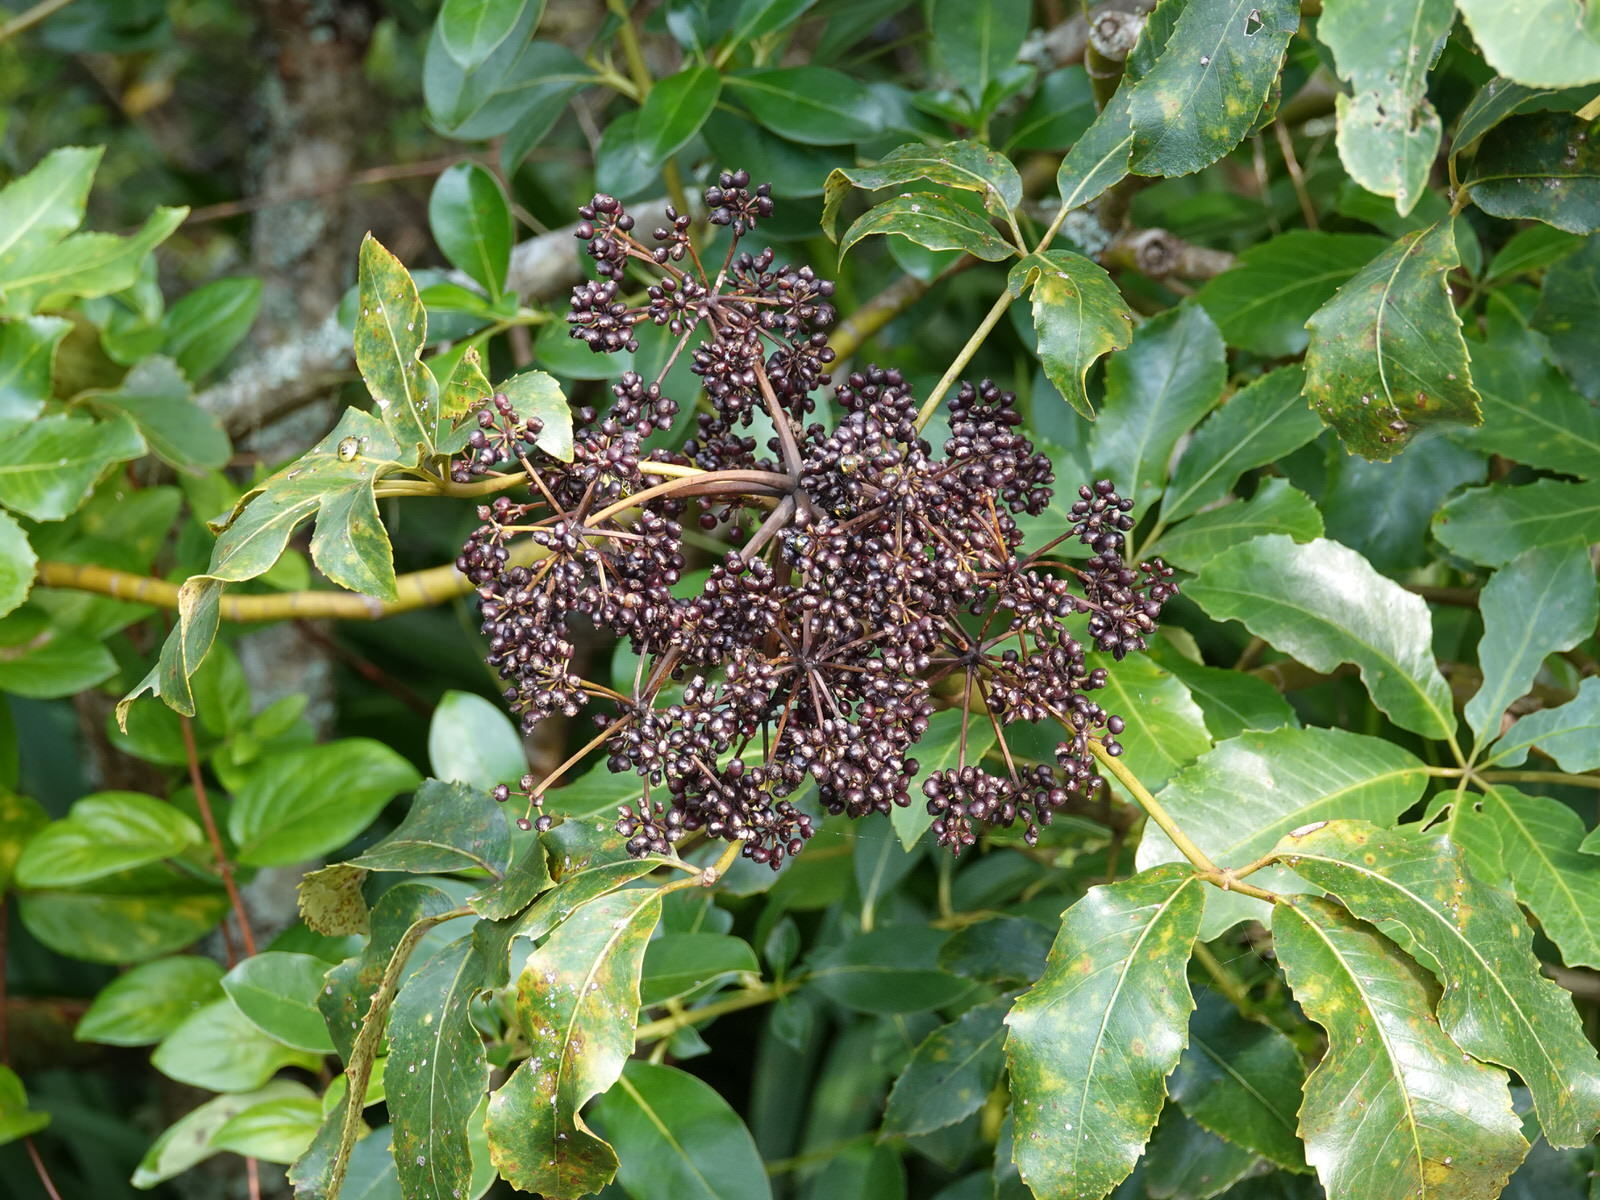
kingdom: Plantae
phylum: Tracheophyta
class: Magnoliopsida
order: Apiales
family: Araliaceae
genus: Neopanax
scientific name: Neopanax arboreus
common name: Five-fingers
